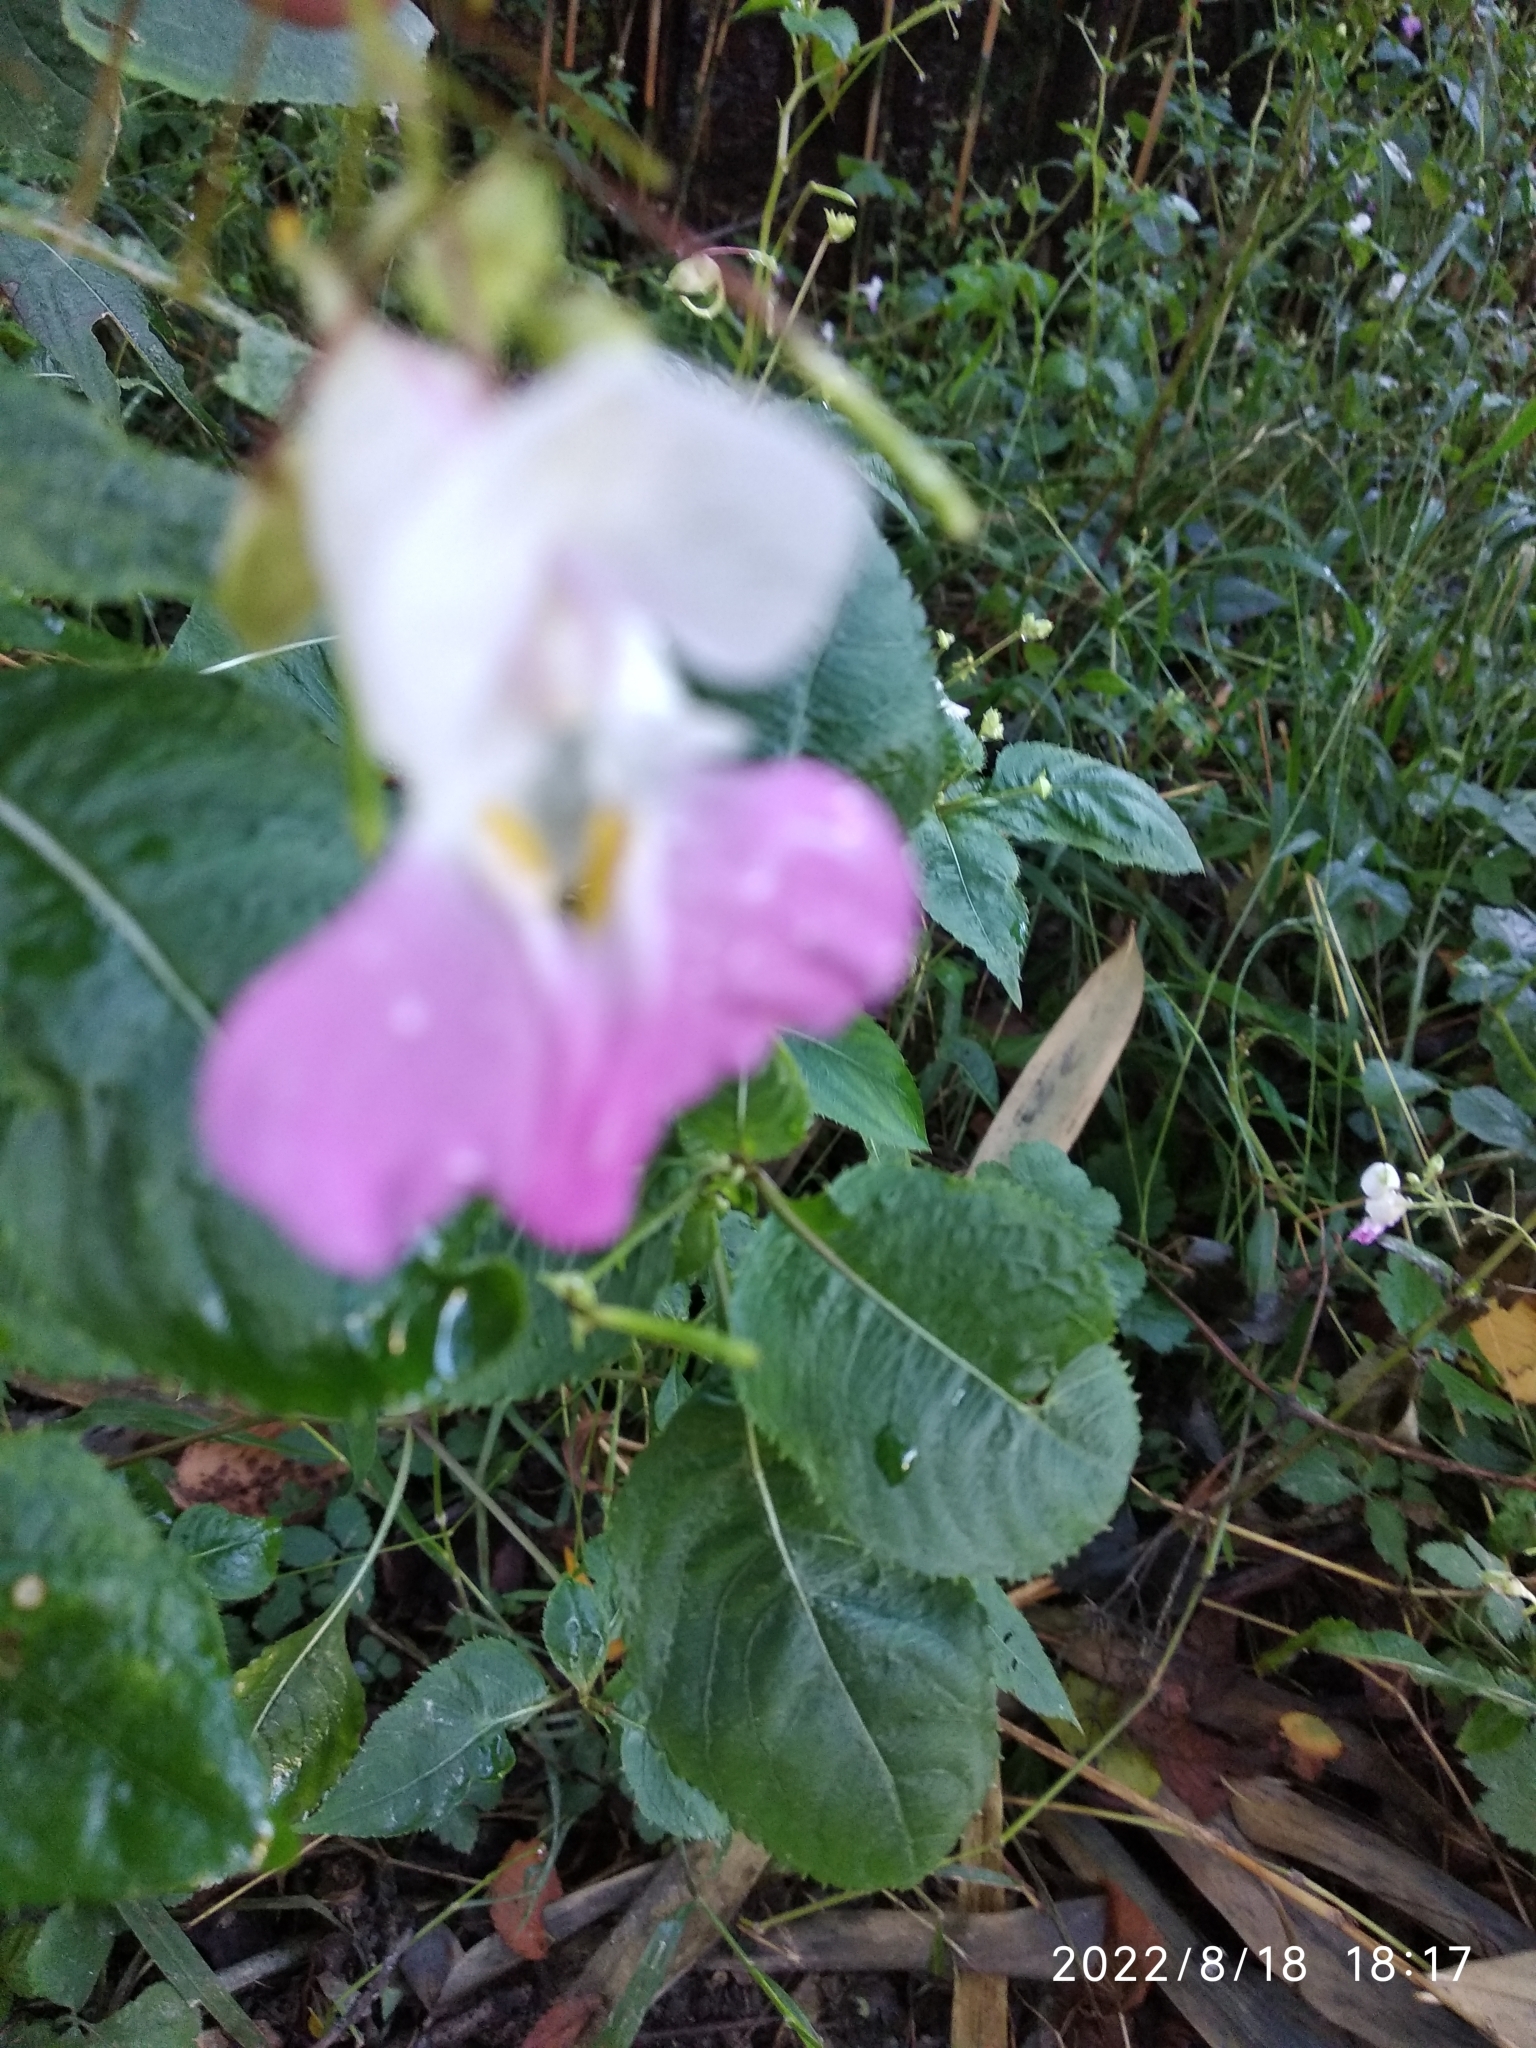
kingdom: Plantae
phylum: Tracheophyta
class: Magnoliopsida
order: Ericales
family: Balsaminaceae
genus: Impatiens
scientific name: Impatiens balfourii
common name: Balfour's touch-me-not
